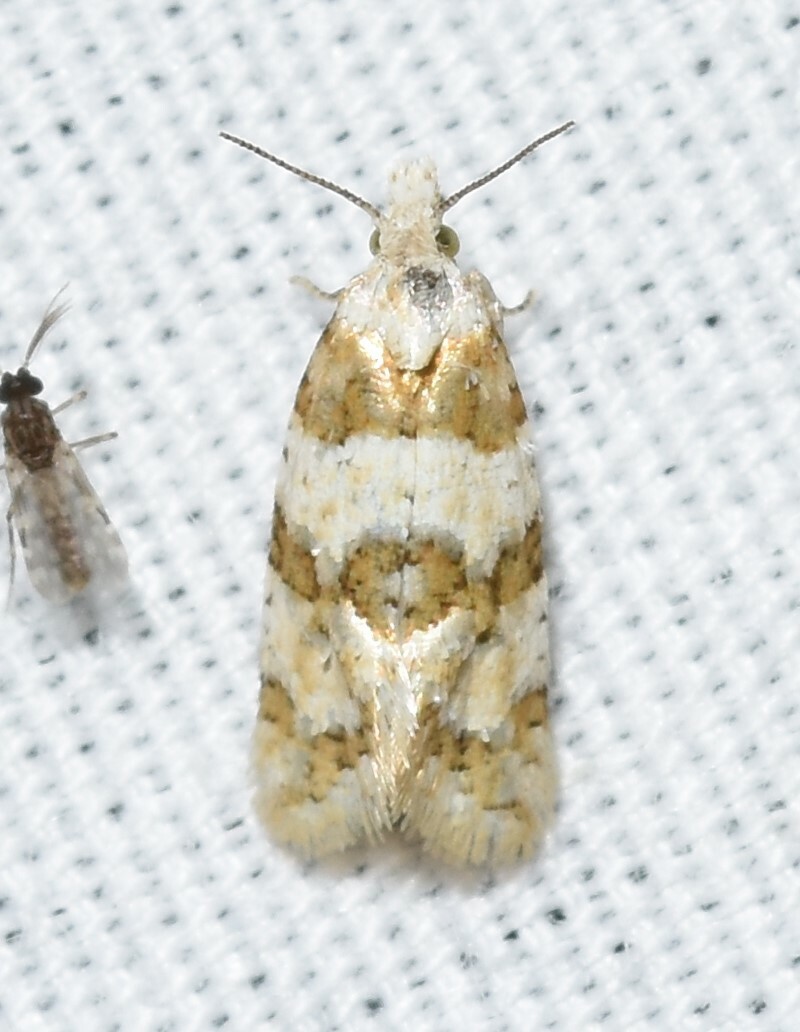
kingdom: Animalia
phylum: Arthropoda
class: Insecta
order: Lepidoptera
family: Tortricidae
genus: Aethes
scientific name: Aethes argentilimitana
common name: Silver-bordered aethes
